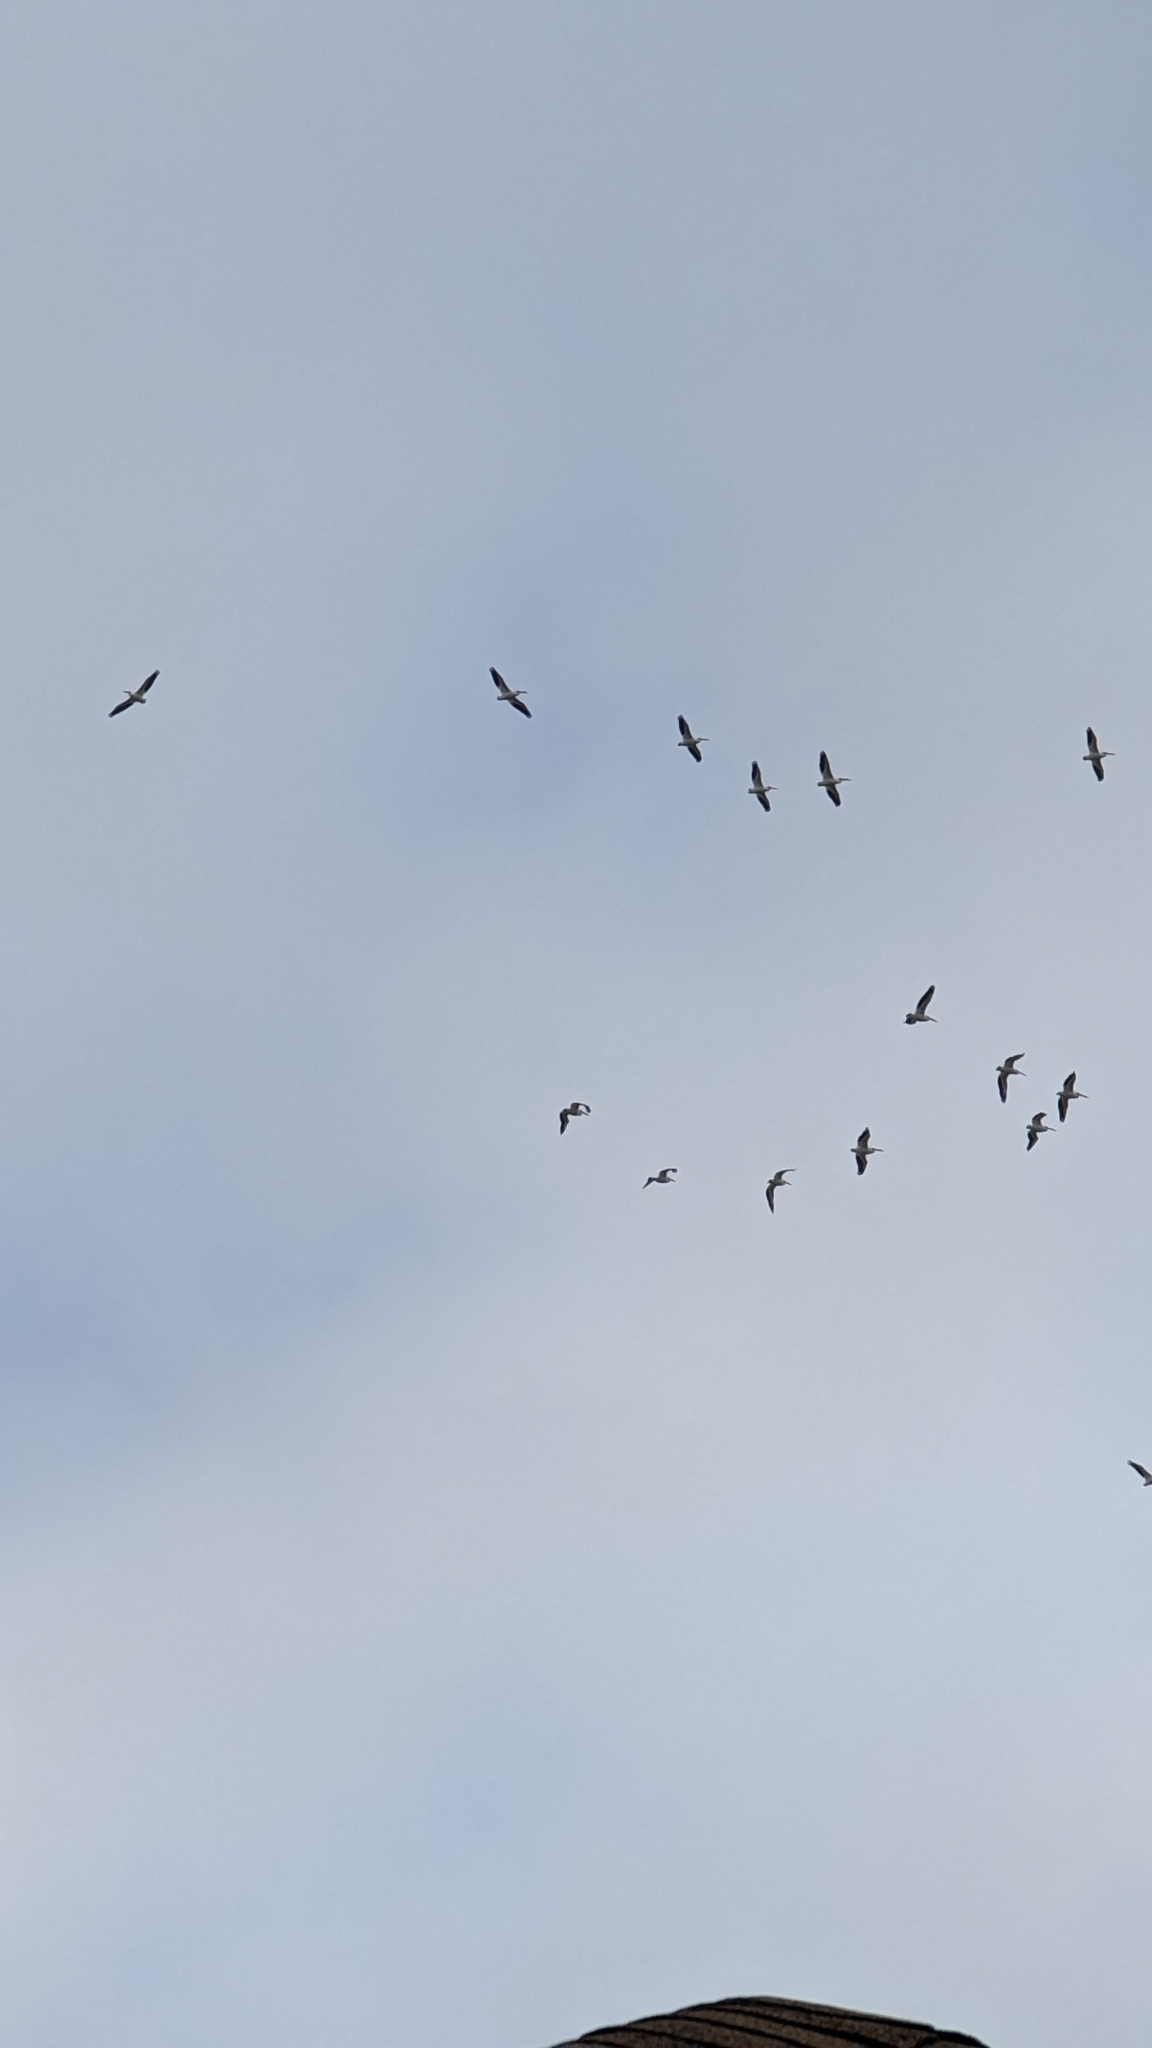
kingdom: Animalia
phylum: Chordata
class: Aves
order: Pelecaniformes
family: Pelecanidae
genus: Pelecanus
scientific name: Pelecanus erythrorhynchos
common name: American white pelican
